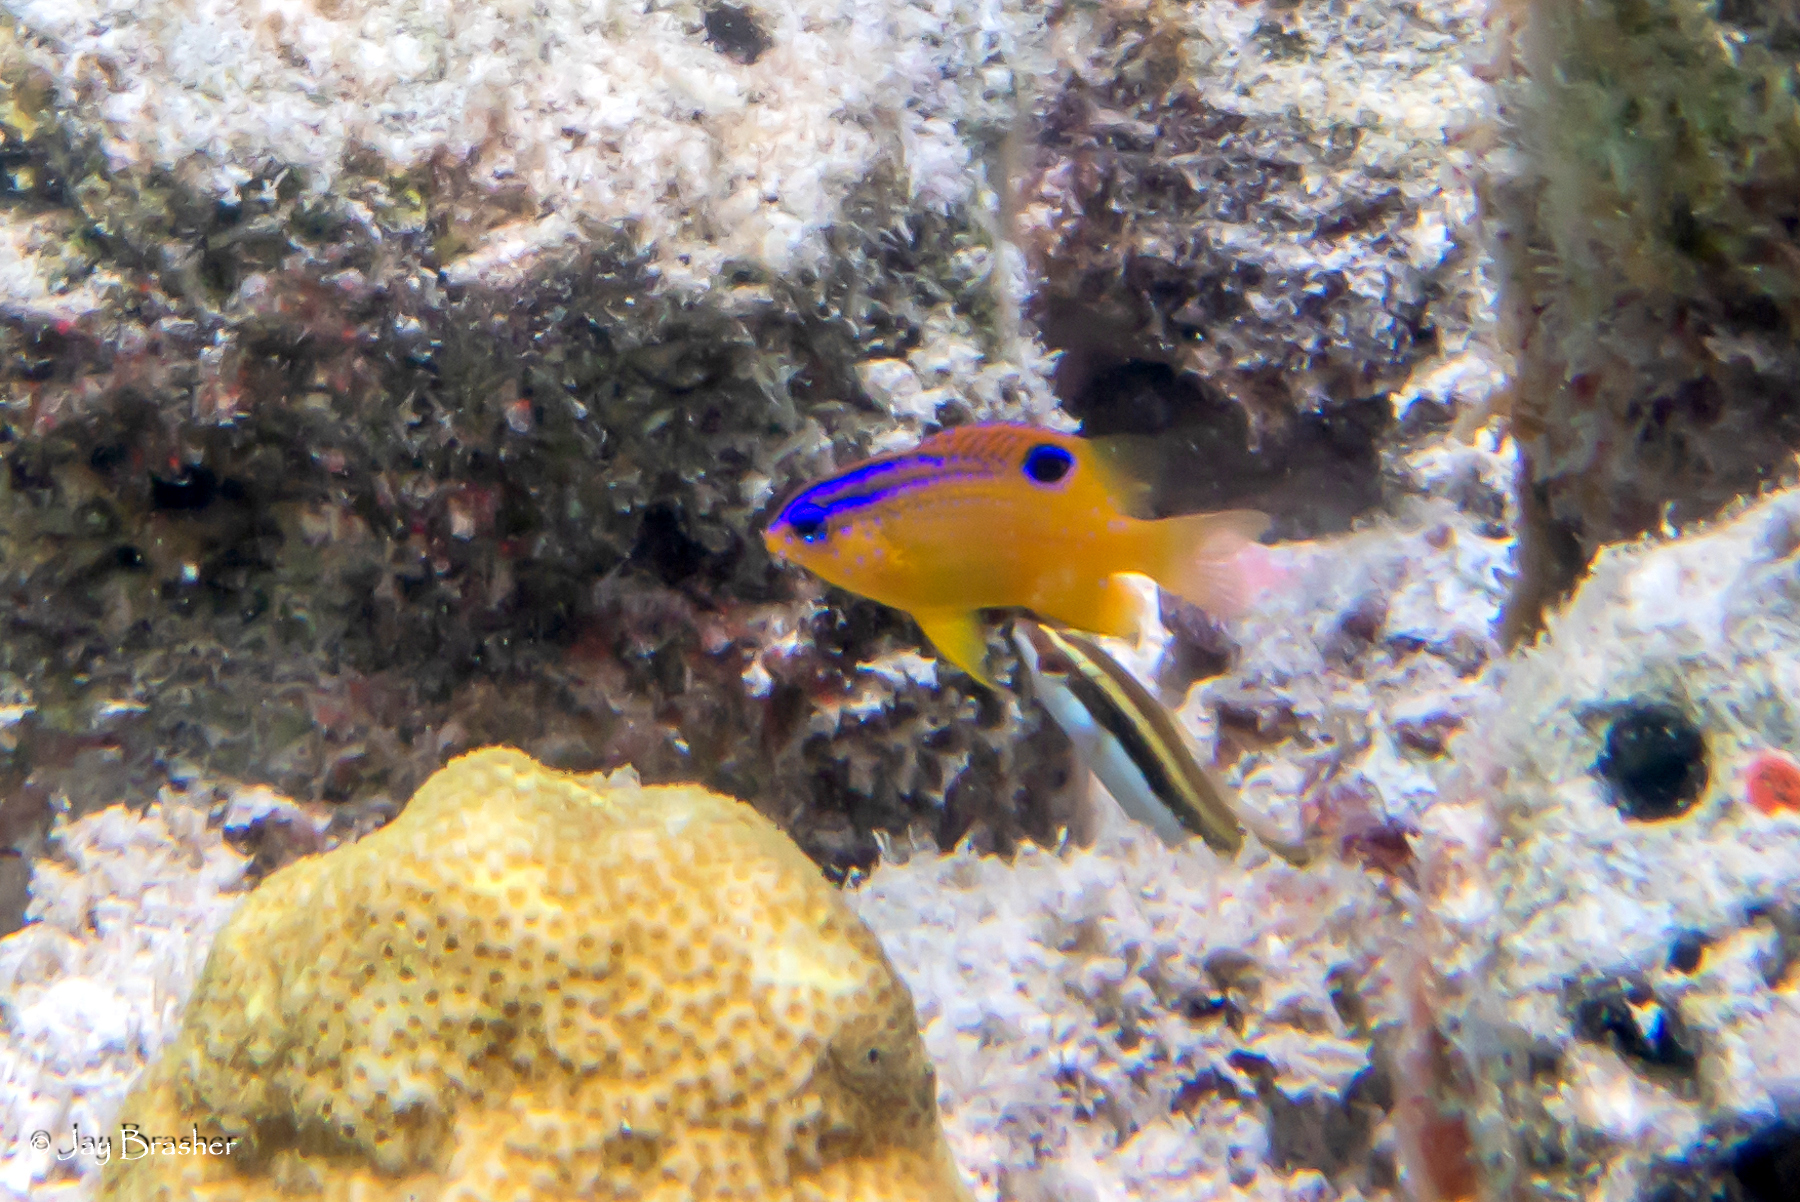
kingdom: Animalia
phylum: Chordata
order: Perciformes
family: Pomacentridae
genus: Stegastes
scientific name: Stegastes diencaeus
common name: Longfin damselfish
